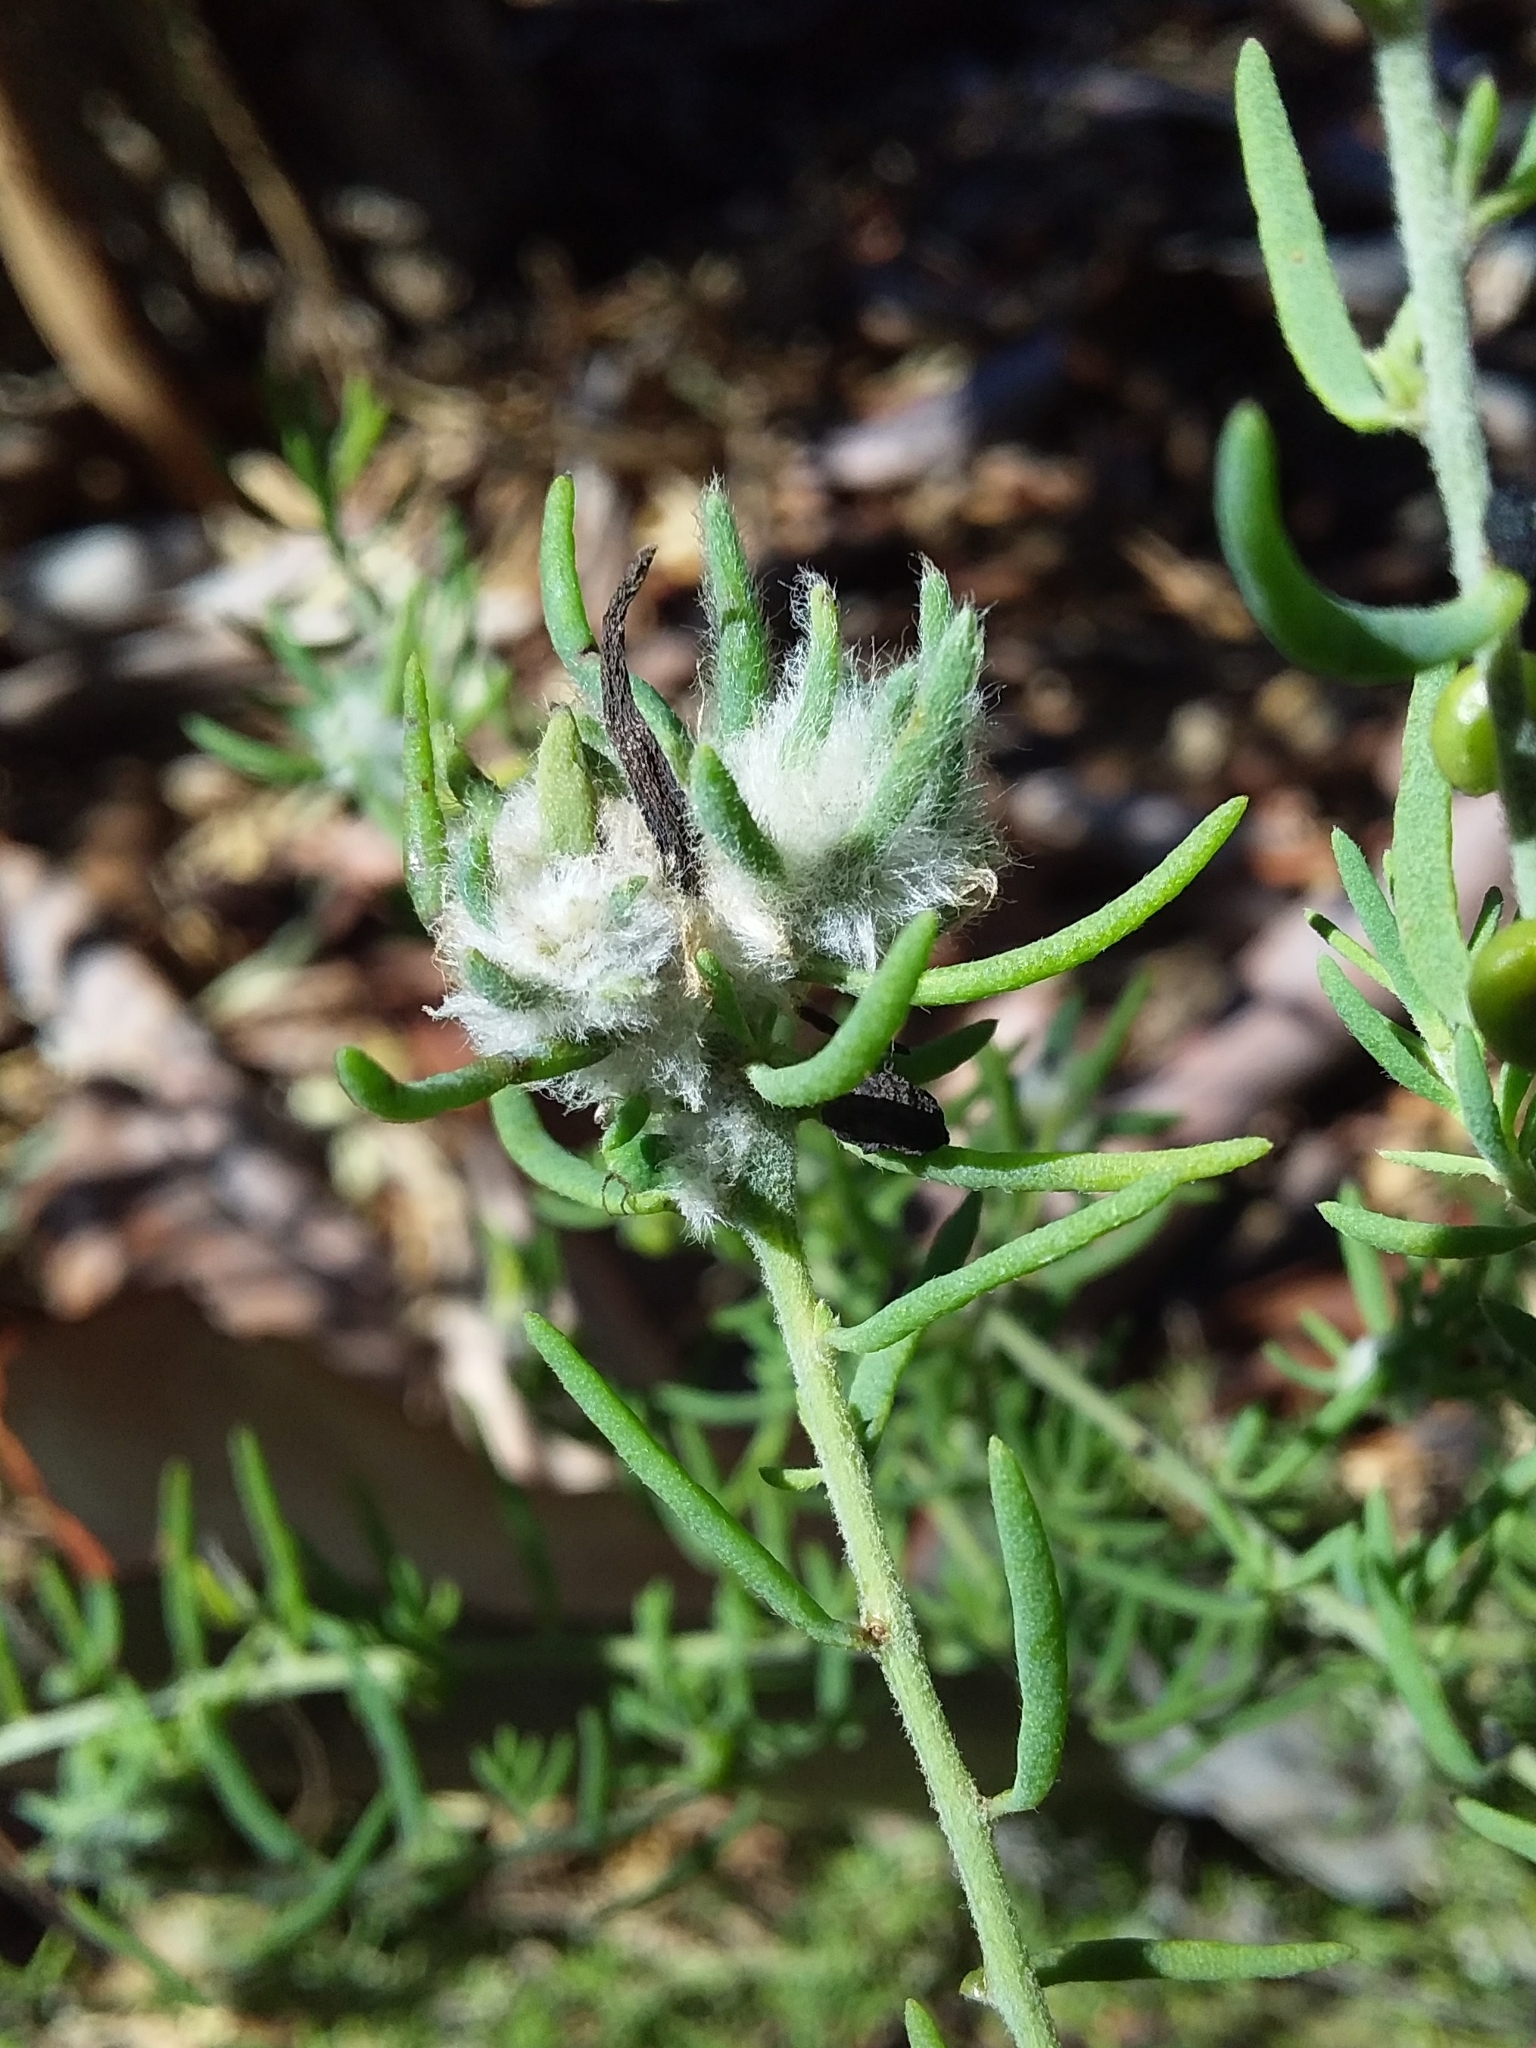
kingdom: Animalia
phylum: Arthropoda
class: Insecta
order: Diptera
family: Cecidomyiidae
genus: Asphondylia
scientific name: Asphondylia tonsura
